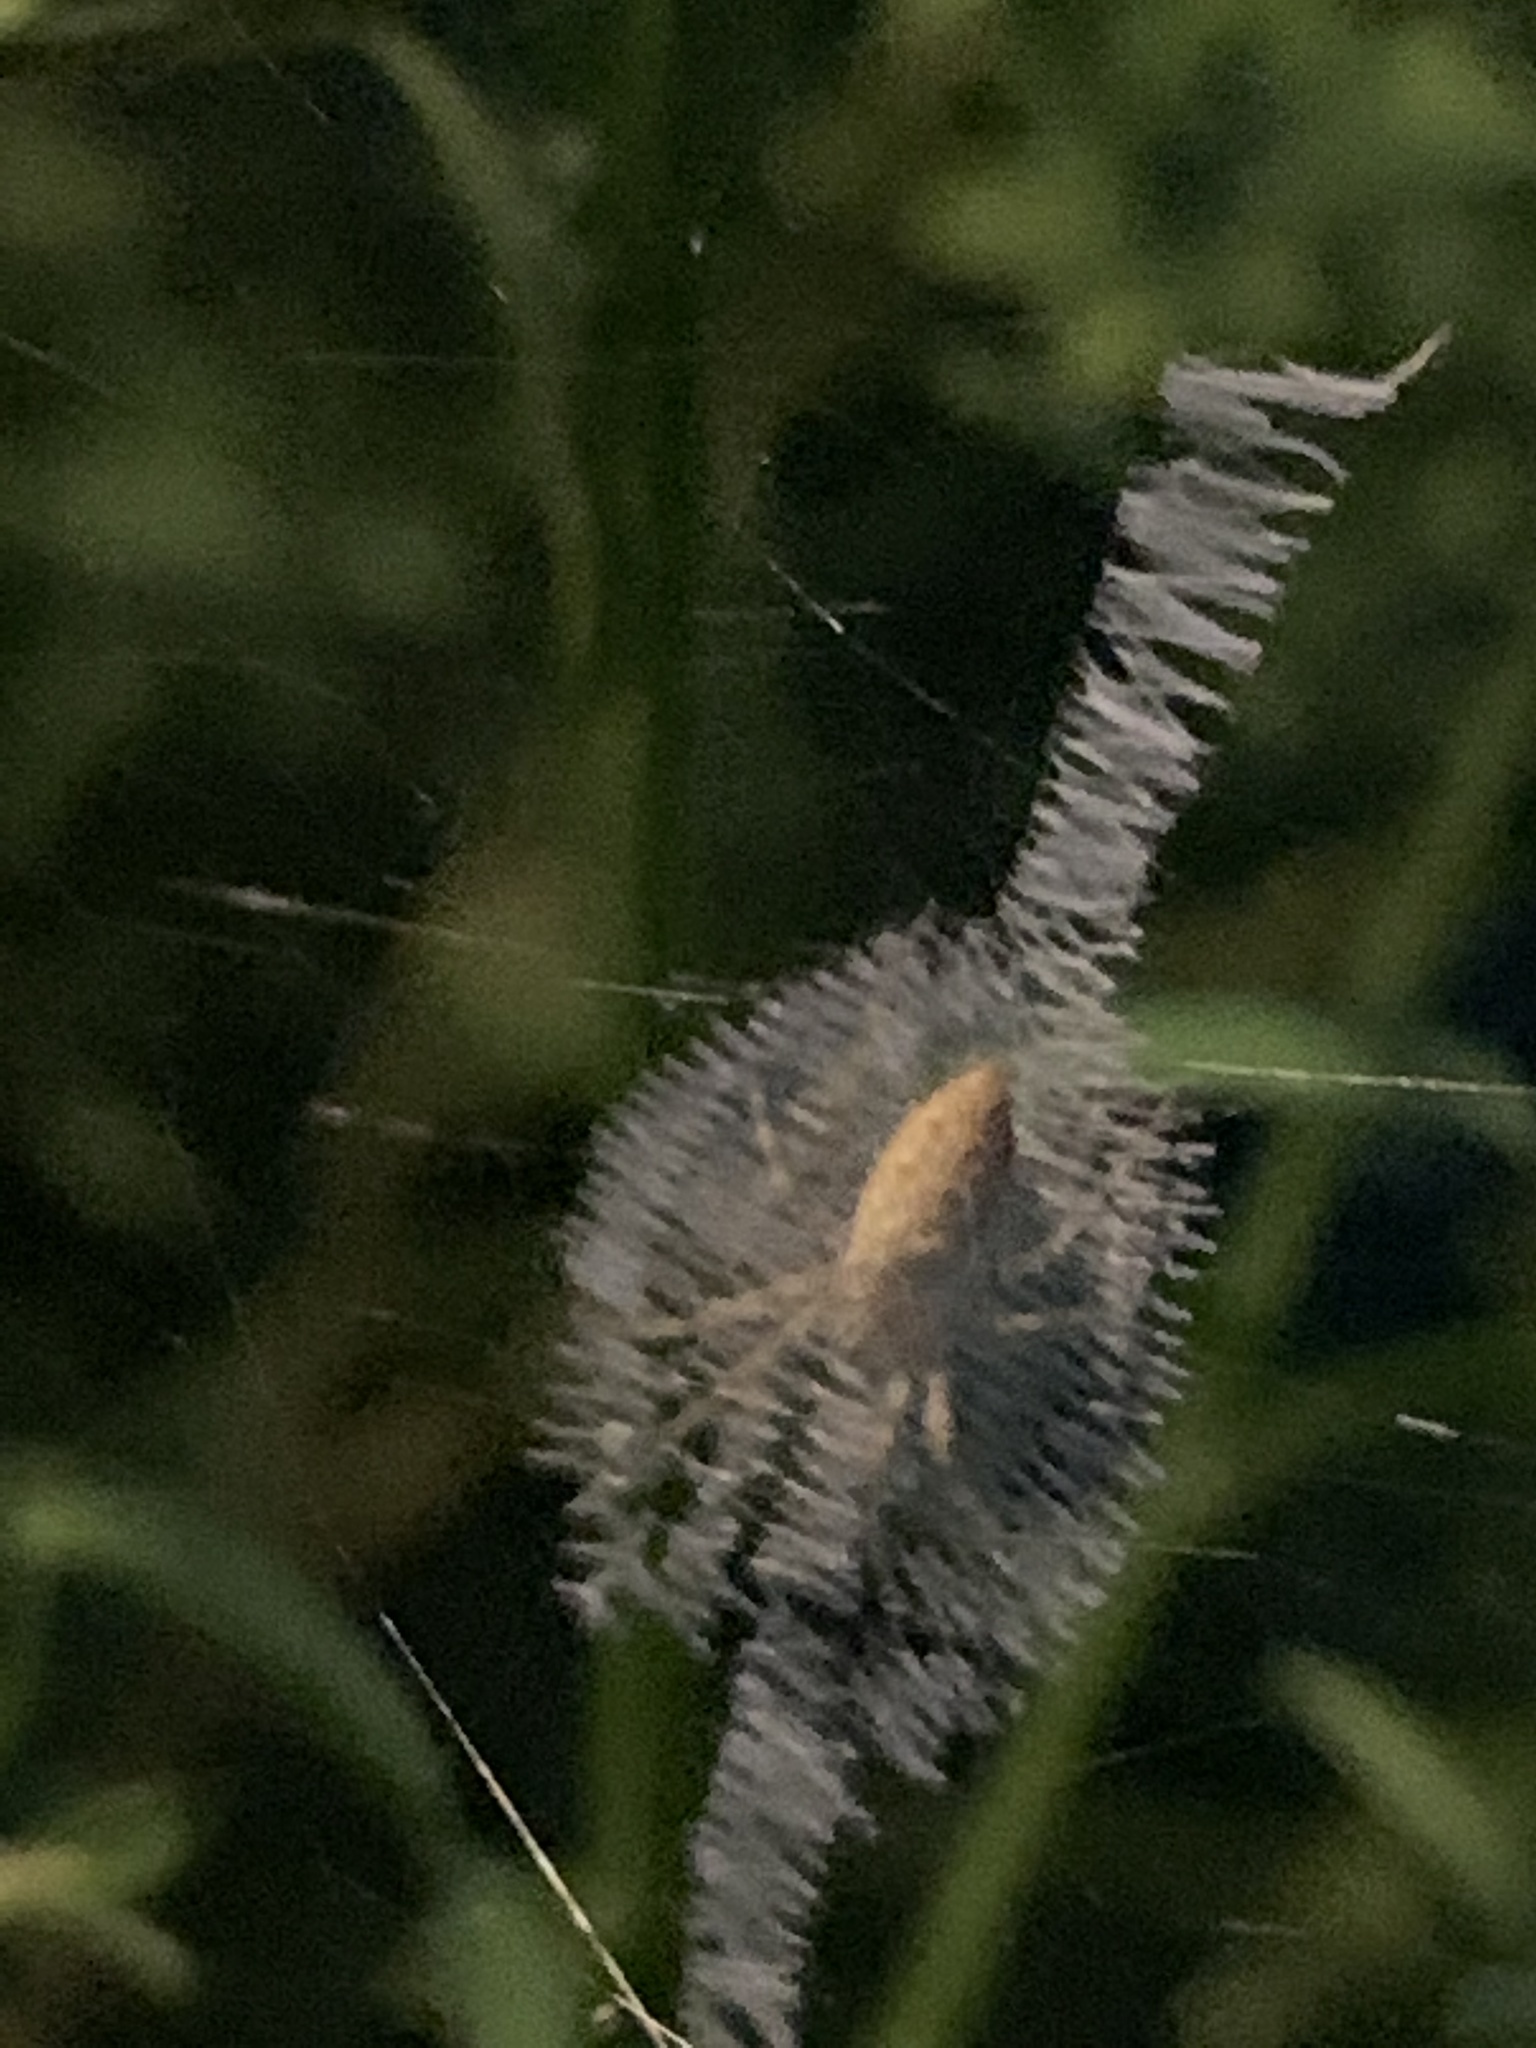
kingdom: Animalia
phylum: Arthropoda
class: Arachnida
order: Araneae
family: Araneidae
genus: Argiope
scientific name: Argiope aurantia
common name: Orb weavers
